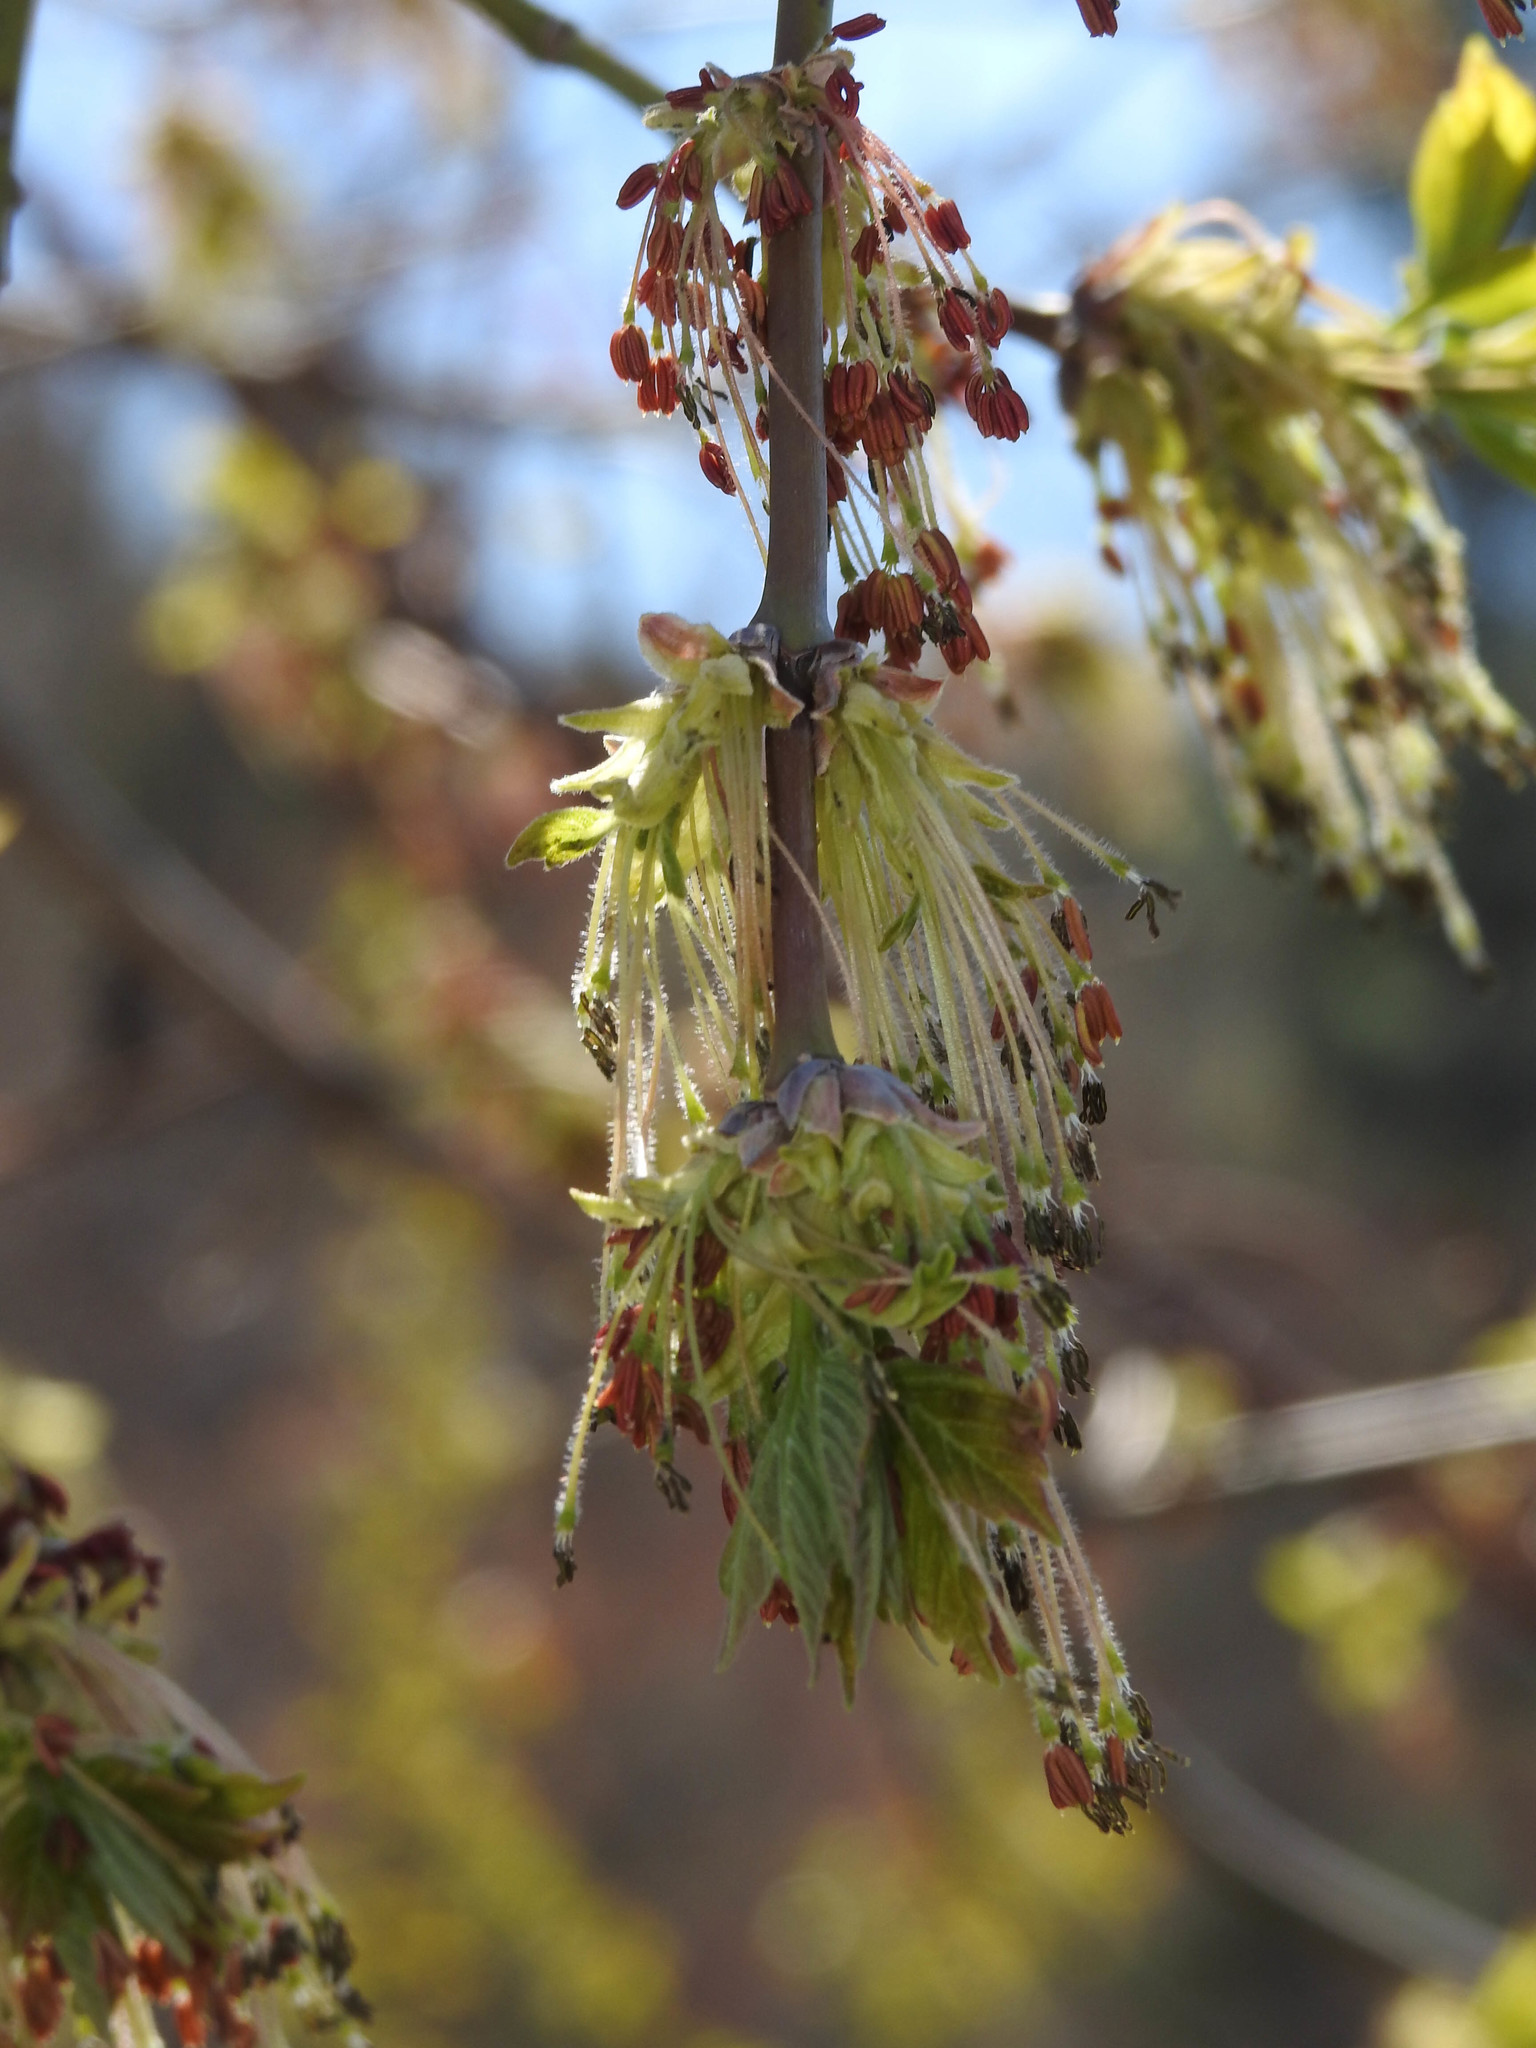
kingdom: Plantae
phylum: Tracheophyta
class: Magnoliopsida
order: Sapindales
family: Sapindaceae
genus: Acer
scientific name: Acer negundo
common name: Ashleaf maple
